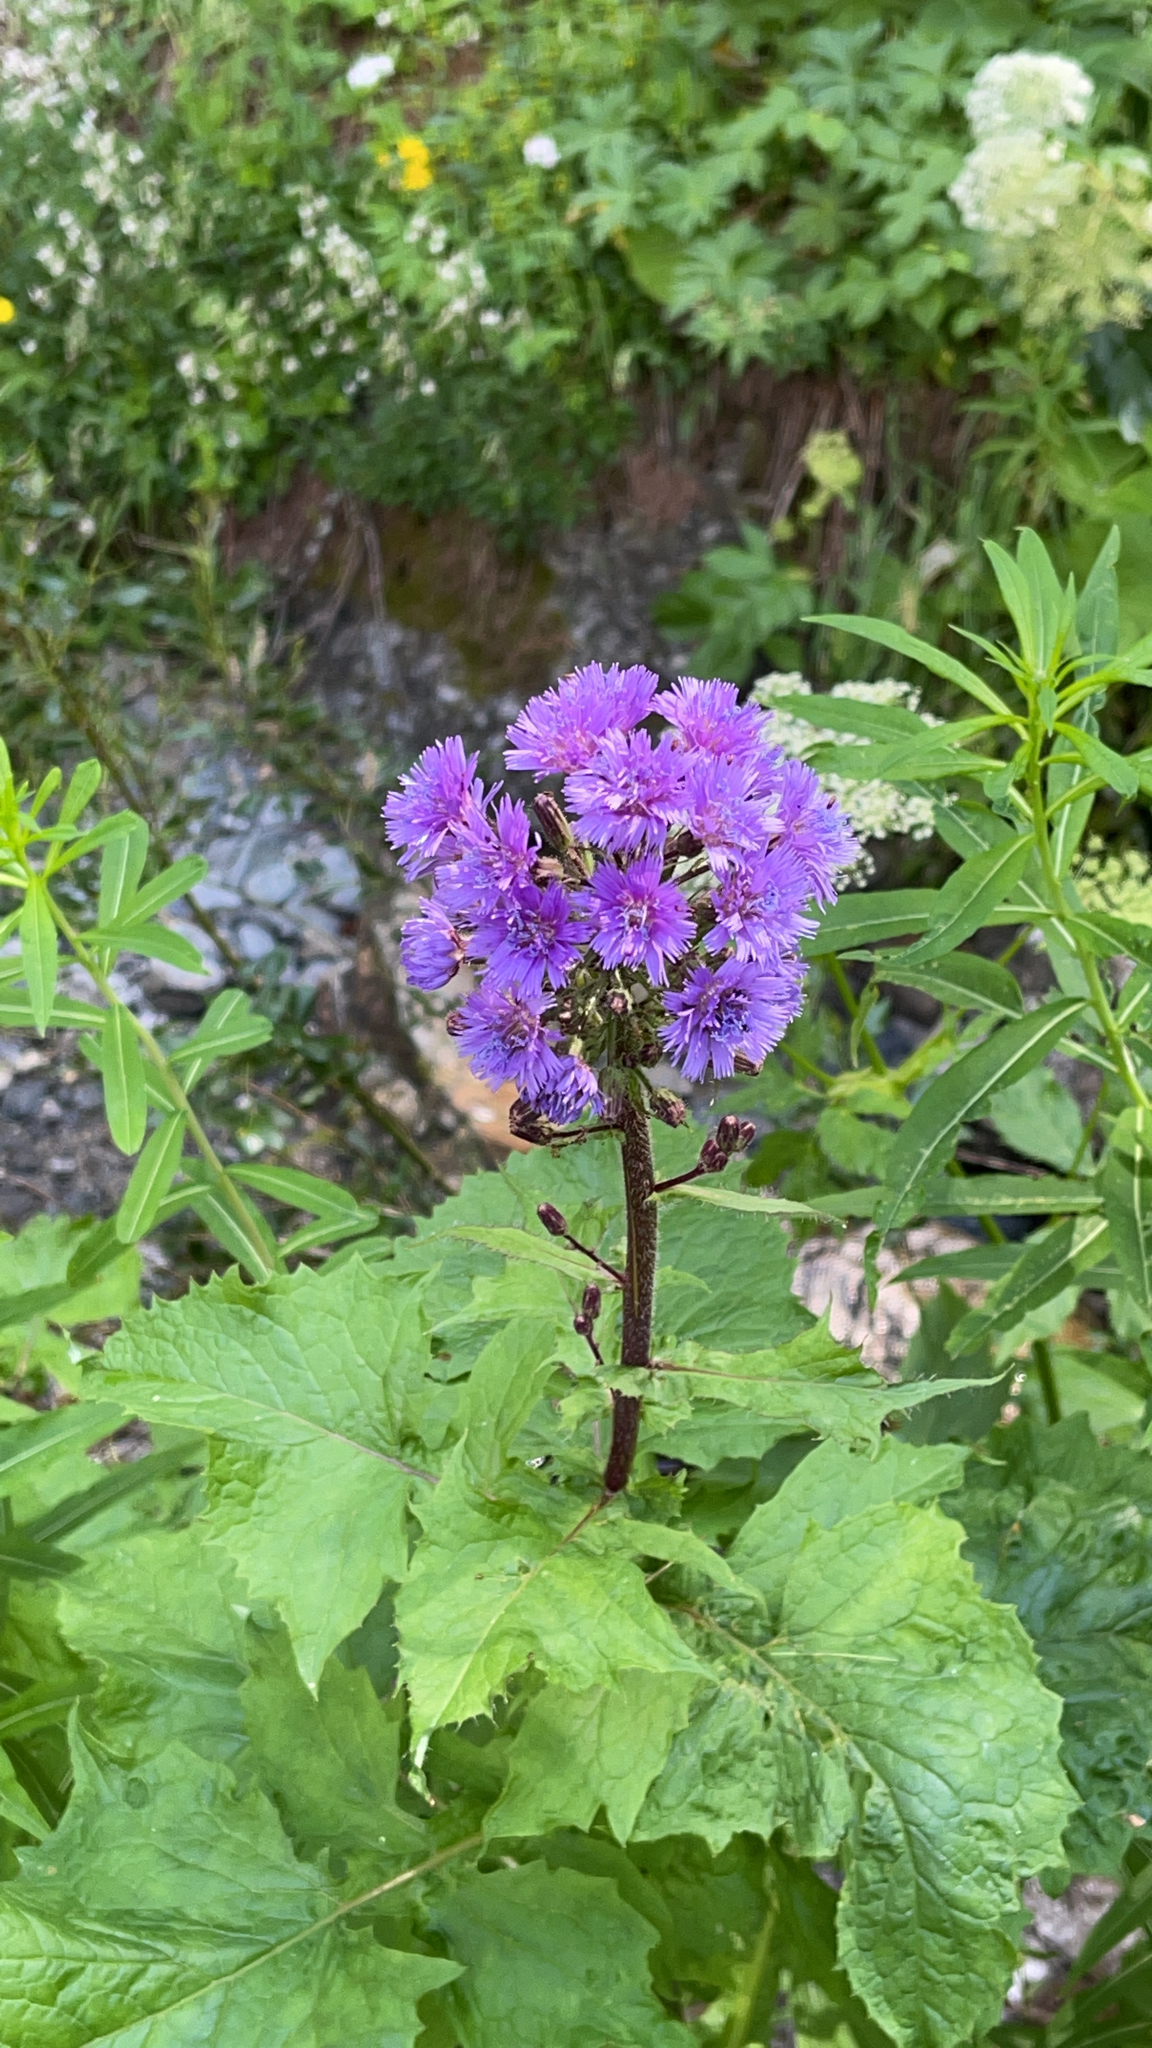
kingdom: Plantae
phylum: Tracheophyta
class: Magnoliopsida
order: Asterales
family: Asteraceae
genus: Cicerbita
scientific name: Cicerbita alpina
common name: Alpine blue-sow-thistle
